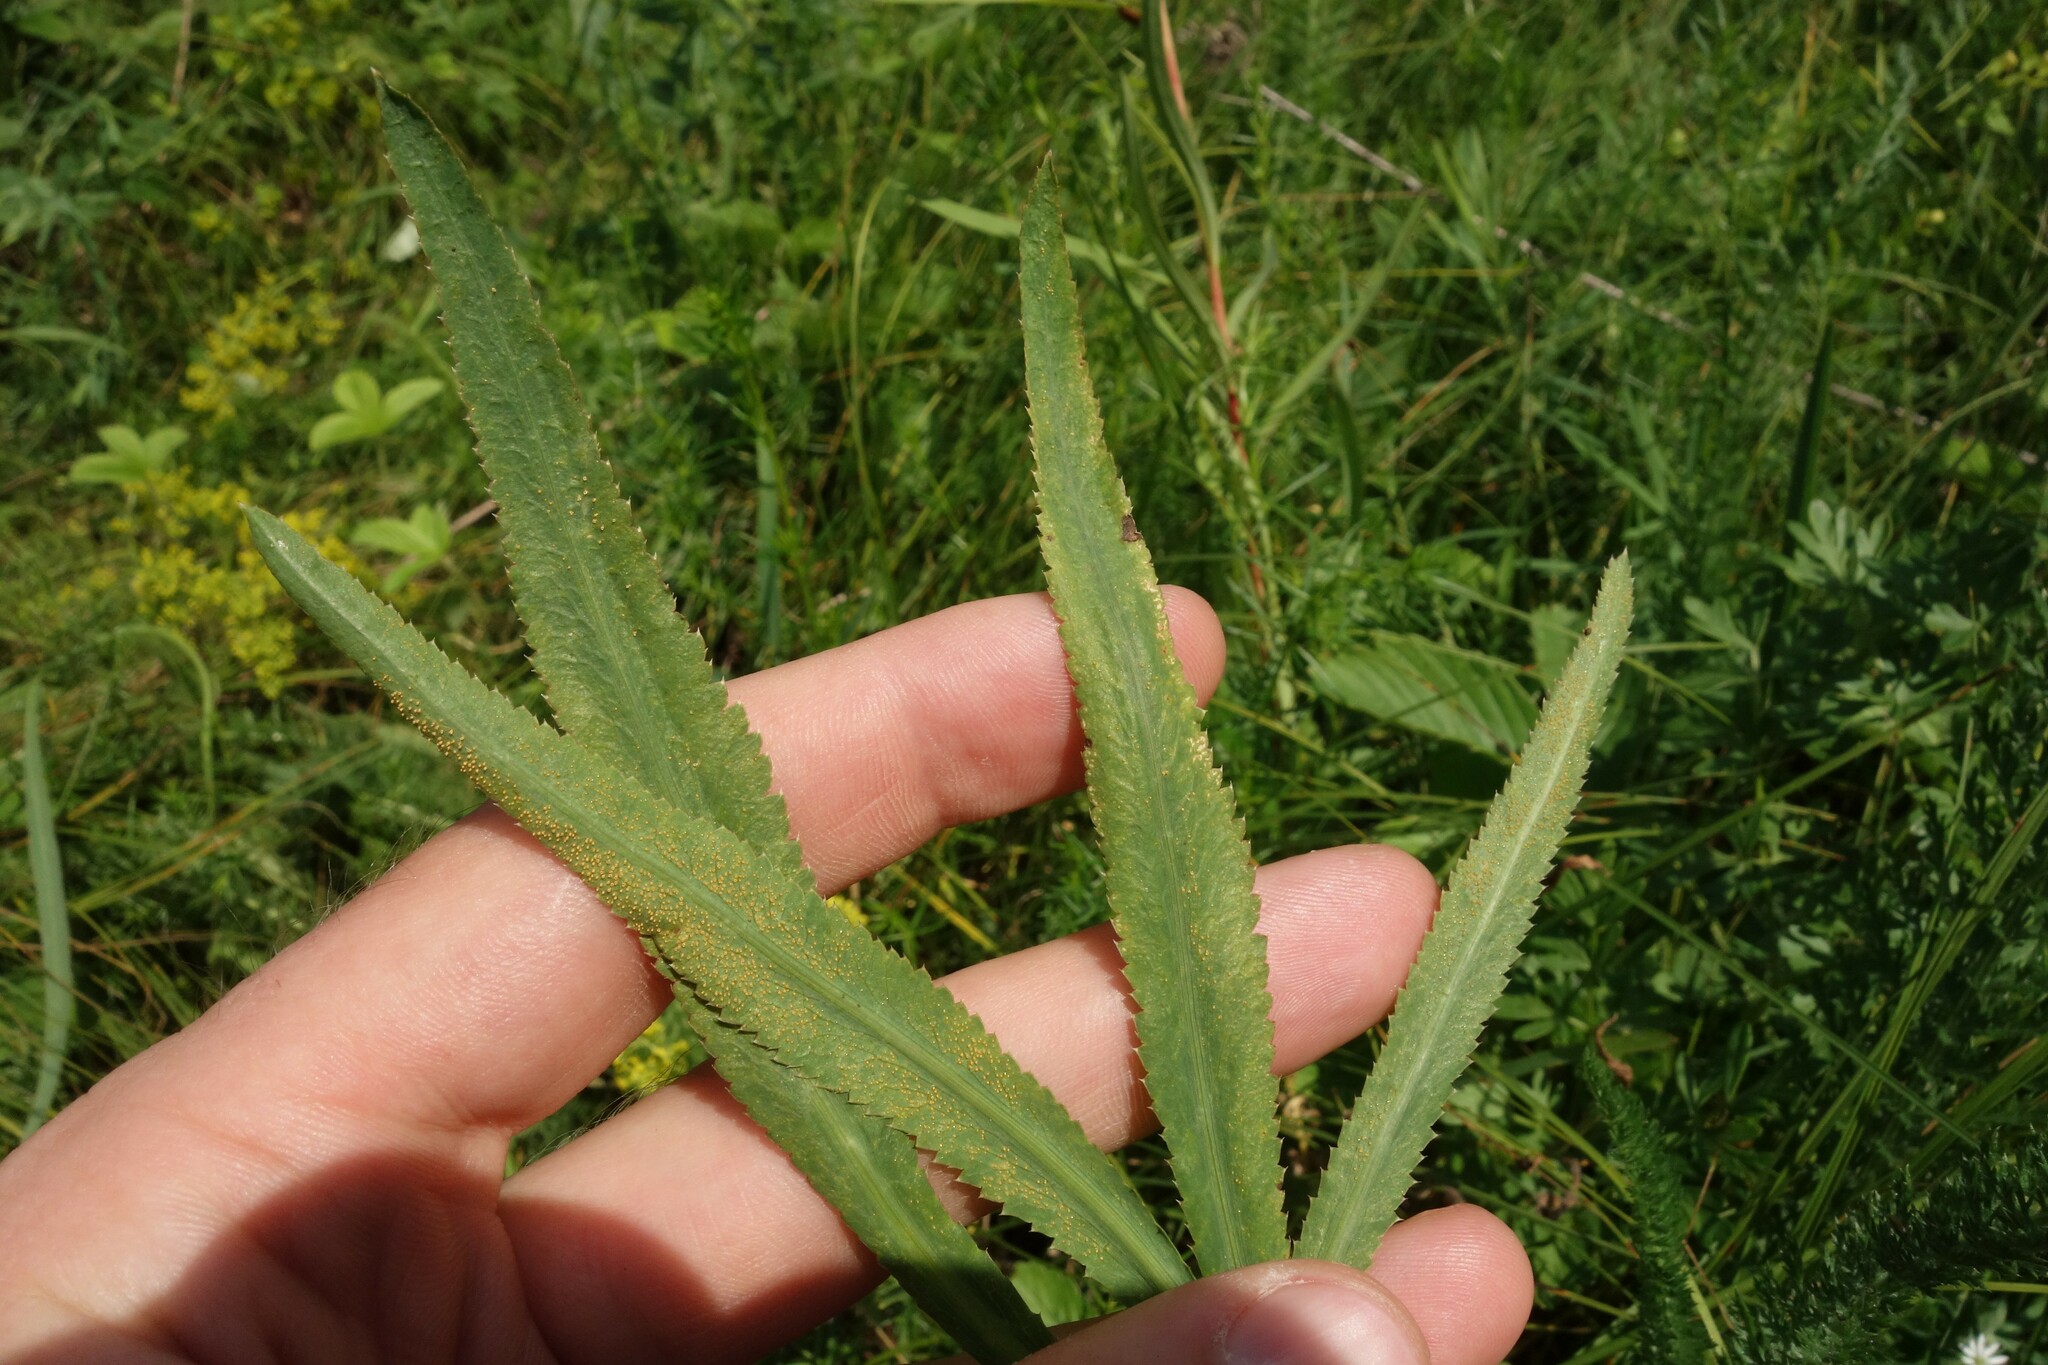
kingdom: Fungi
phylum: Basidiomycota
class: Pucciniomycetes
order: Pucciniales
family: Pucciniaceae
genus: Puccinia
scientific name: Puccinia sii-falcariae
